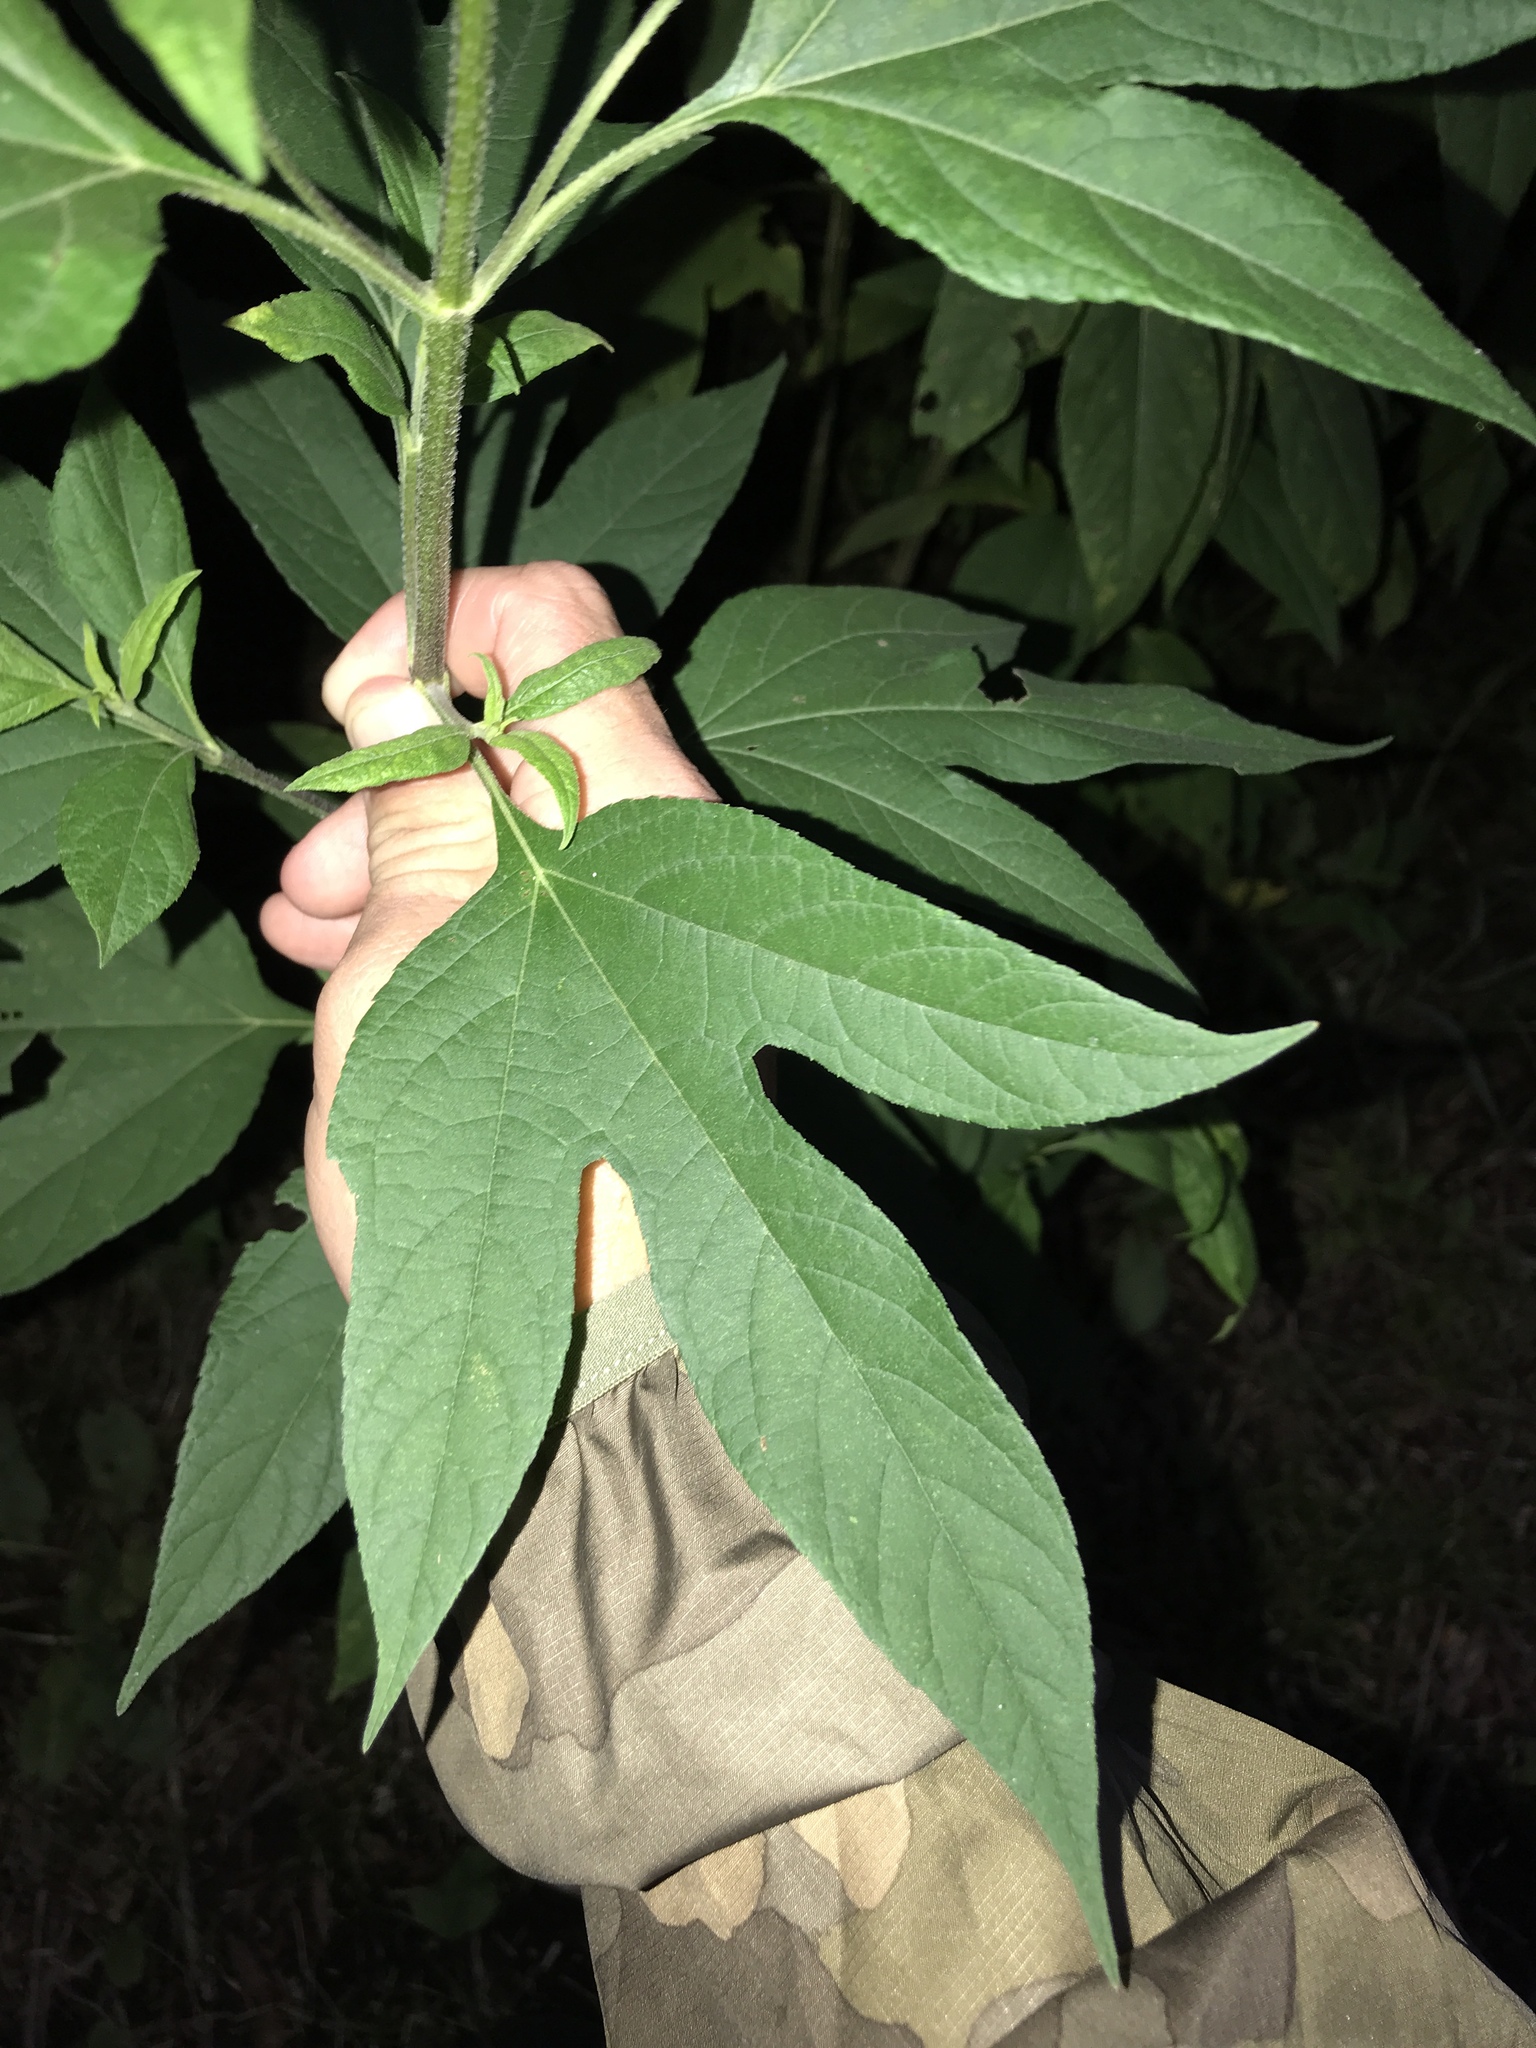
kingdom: Plantae
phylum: Tracheophyta
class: Magnoliopsida
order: Asterales
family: Asteraceae
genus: Ambrosia
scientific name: Ambrosia trifida
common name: Giant ragweed
